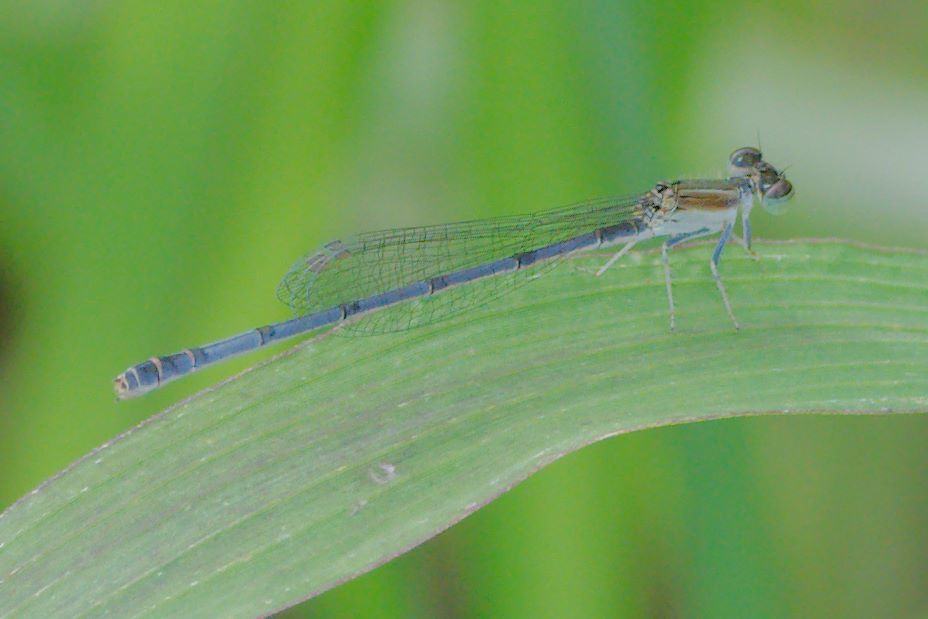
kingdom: Animalia
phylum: Arthropoda
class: Insecta
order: Odonata
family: Coenagrionidae
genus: Ischnura
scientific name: Ischnura hastata
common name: Citrine forktail
